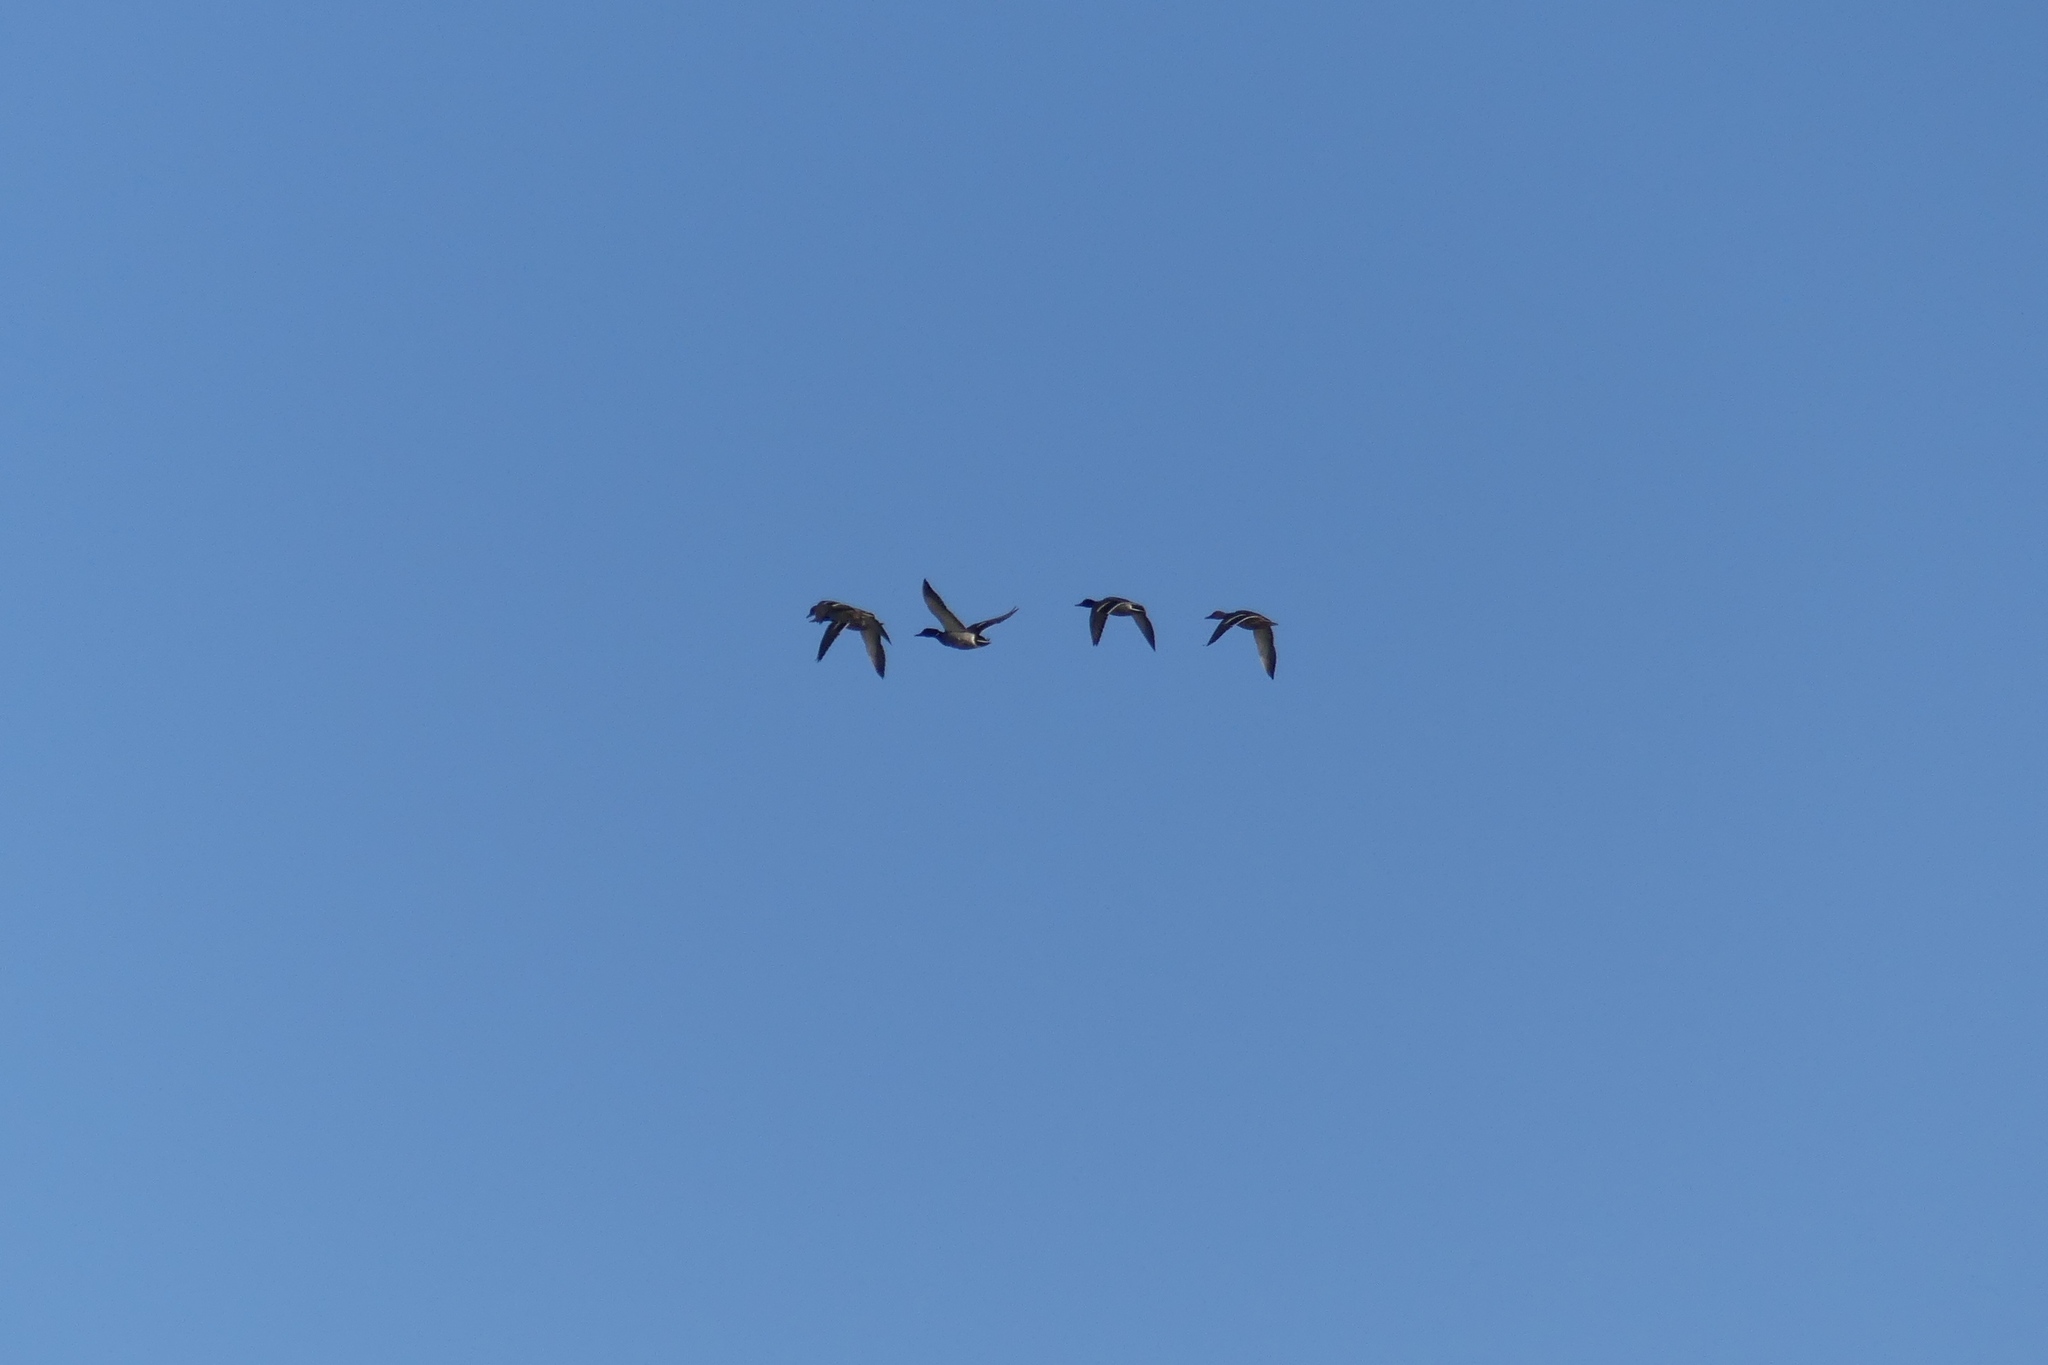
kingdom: Animalia
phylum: Chordata
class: Aves
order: Anseriformes
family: Anatidae
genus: Anas
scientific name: Anas platyrhynchos
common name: Mallard
